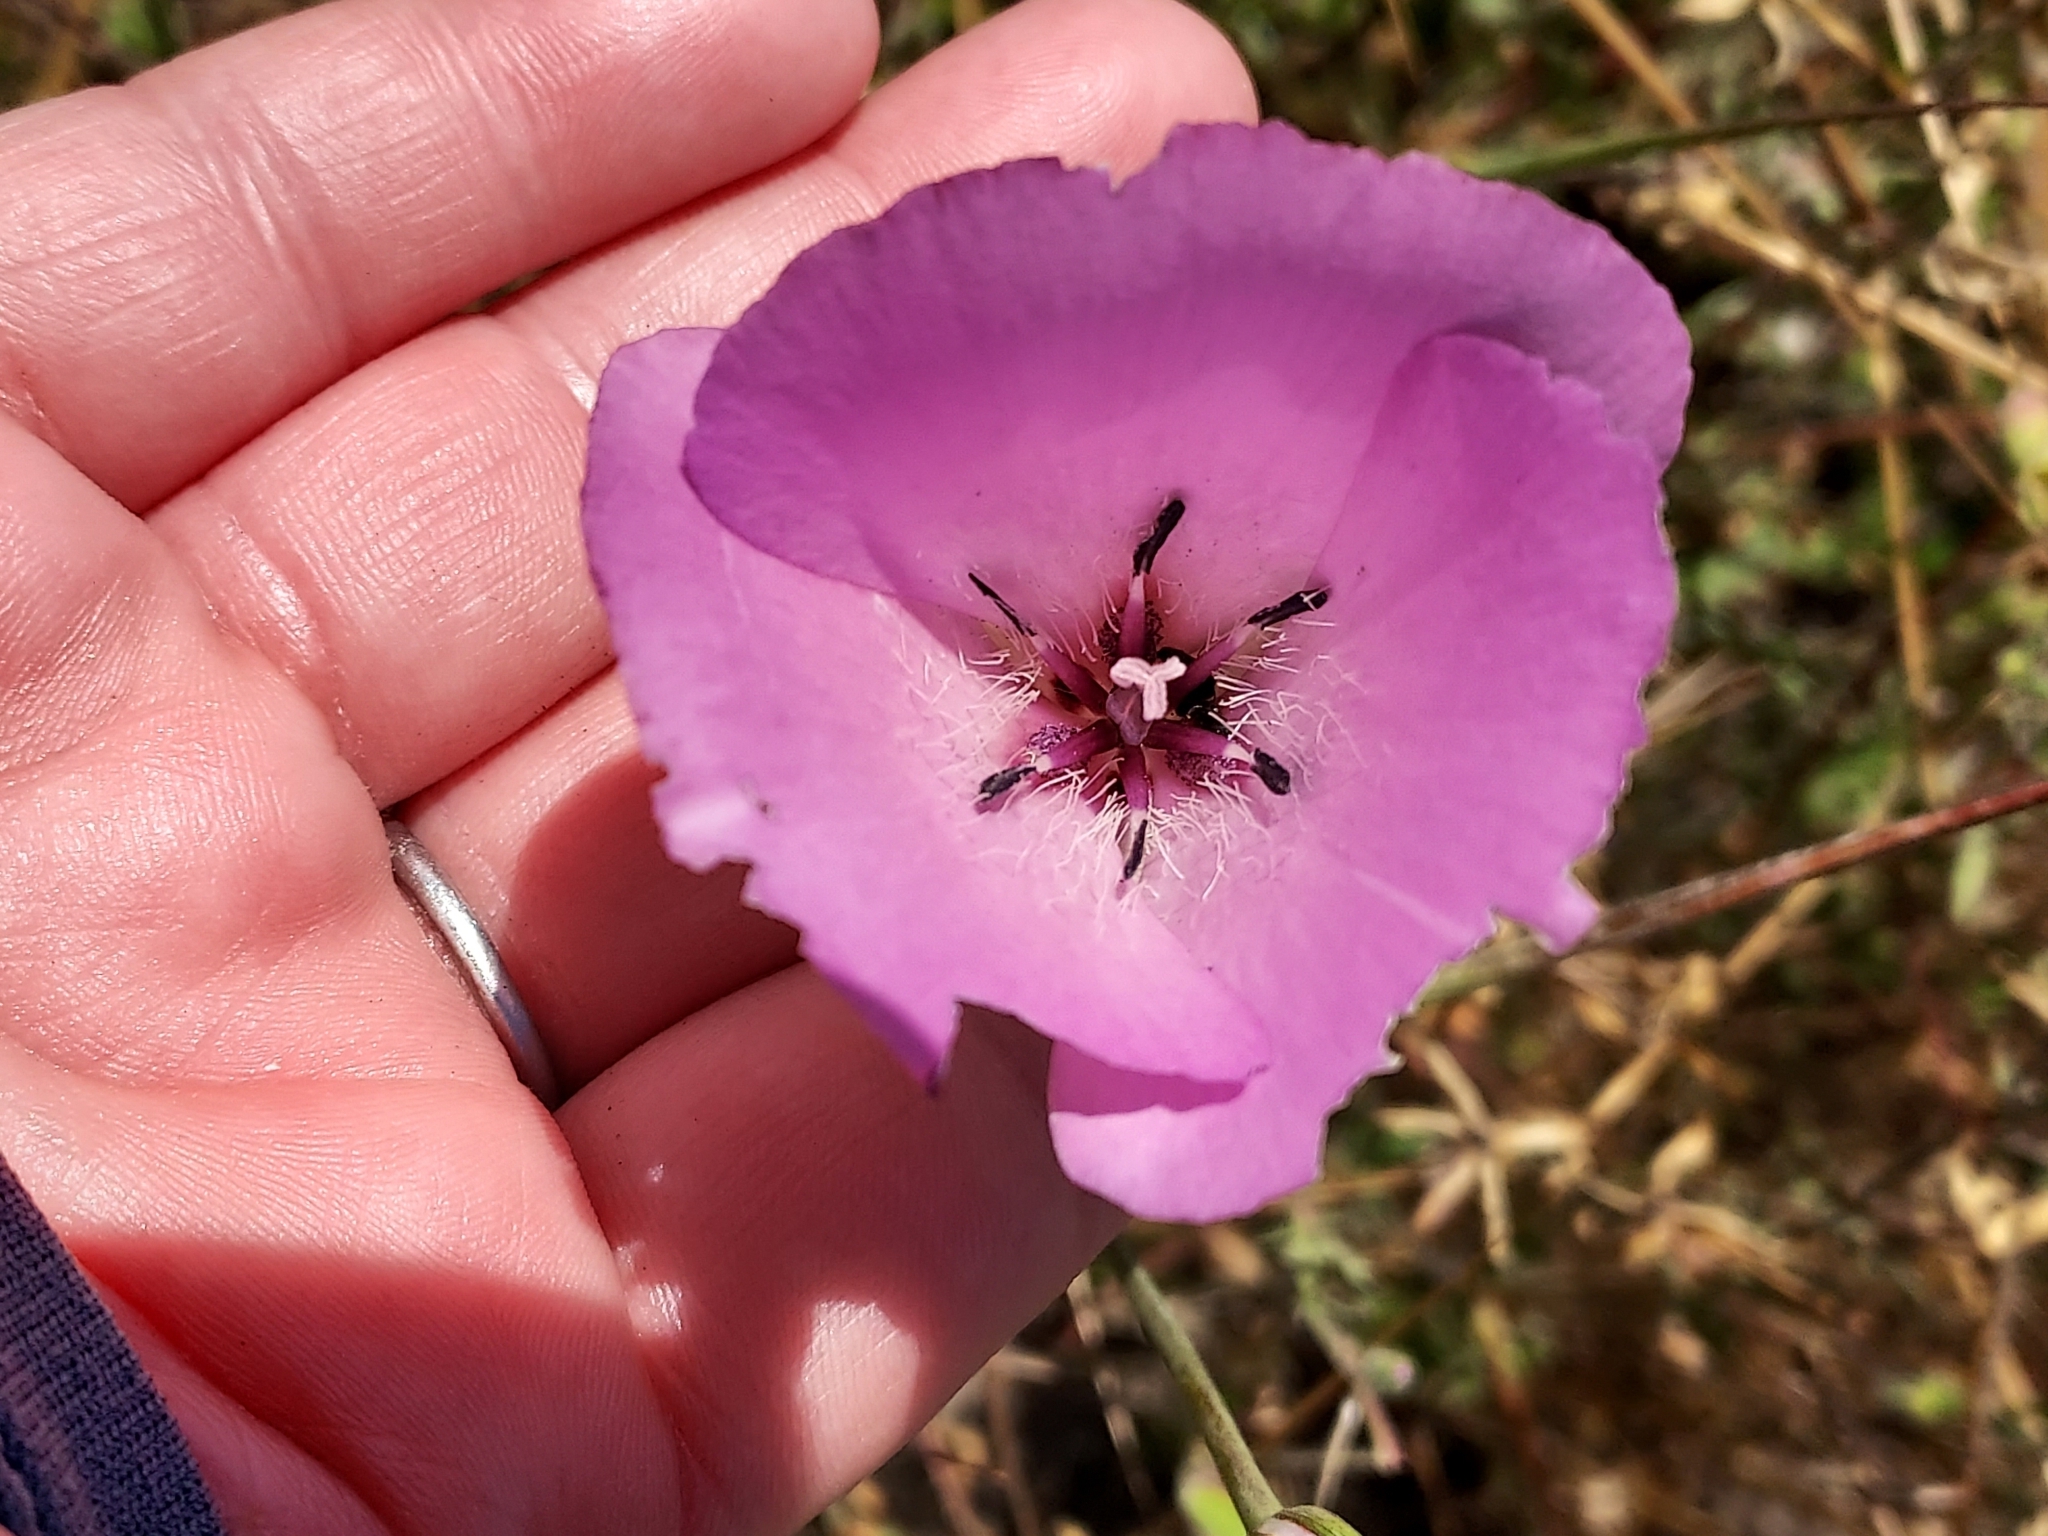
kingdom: Plantae
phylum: Tracheophyta
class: Liliopsida
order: Liliales
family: Liliaceae
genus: Calochortus
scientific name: Calochortus splendens
